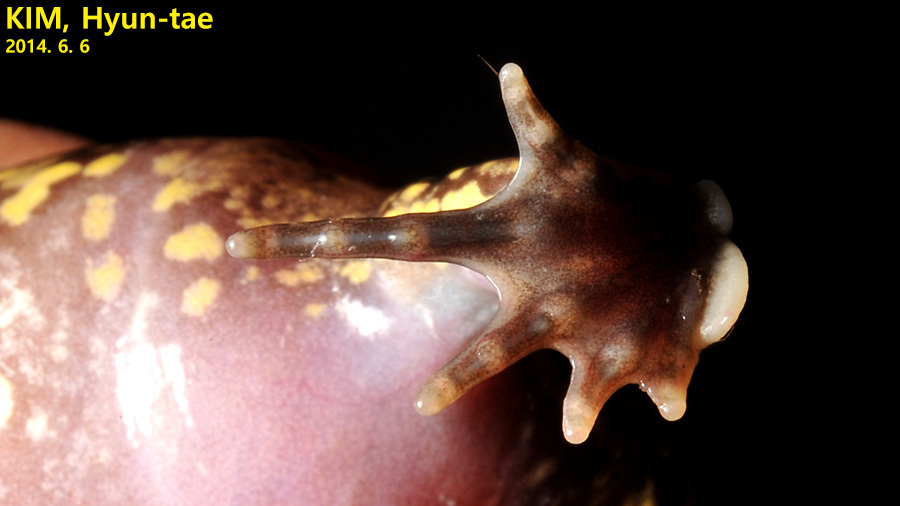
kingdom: Animalia
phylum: Chordata
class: Amphibia
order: Anura
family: Microhylidae
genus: Kaloula
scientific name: Kaloula borealis
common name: Boreal digging frog
